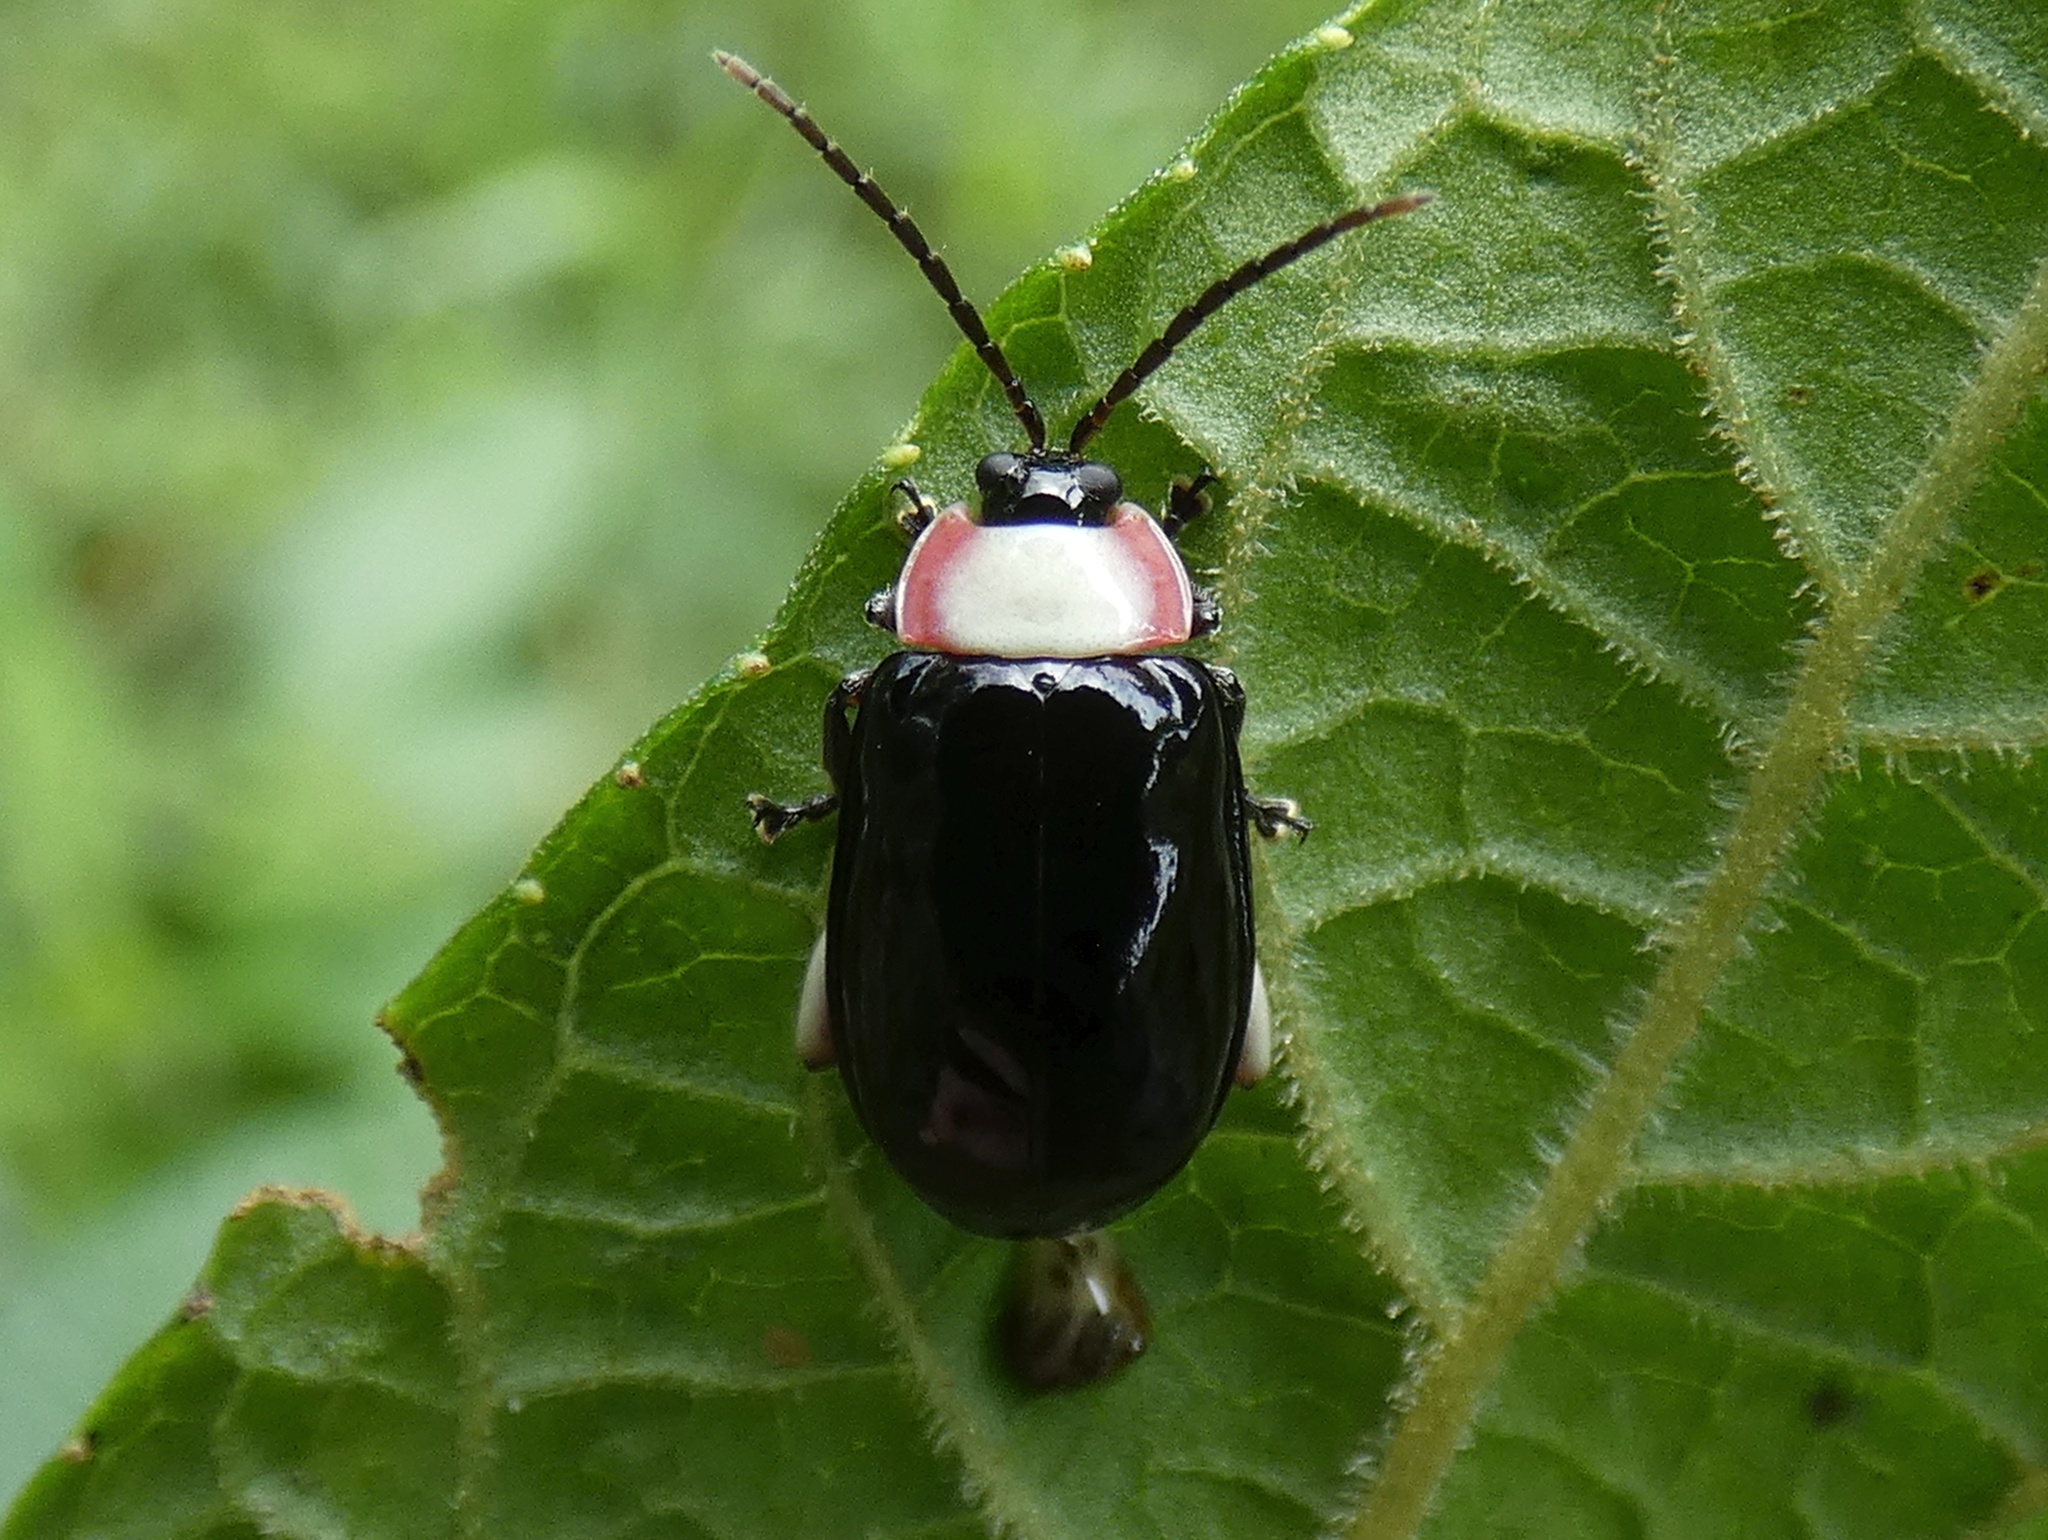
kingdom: Animalia
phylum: Arthropoda
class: Insecta
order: Coleoptera
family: Chrysomelidae
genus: Asphaera
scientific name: Asphaera
